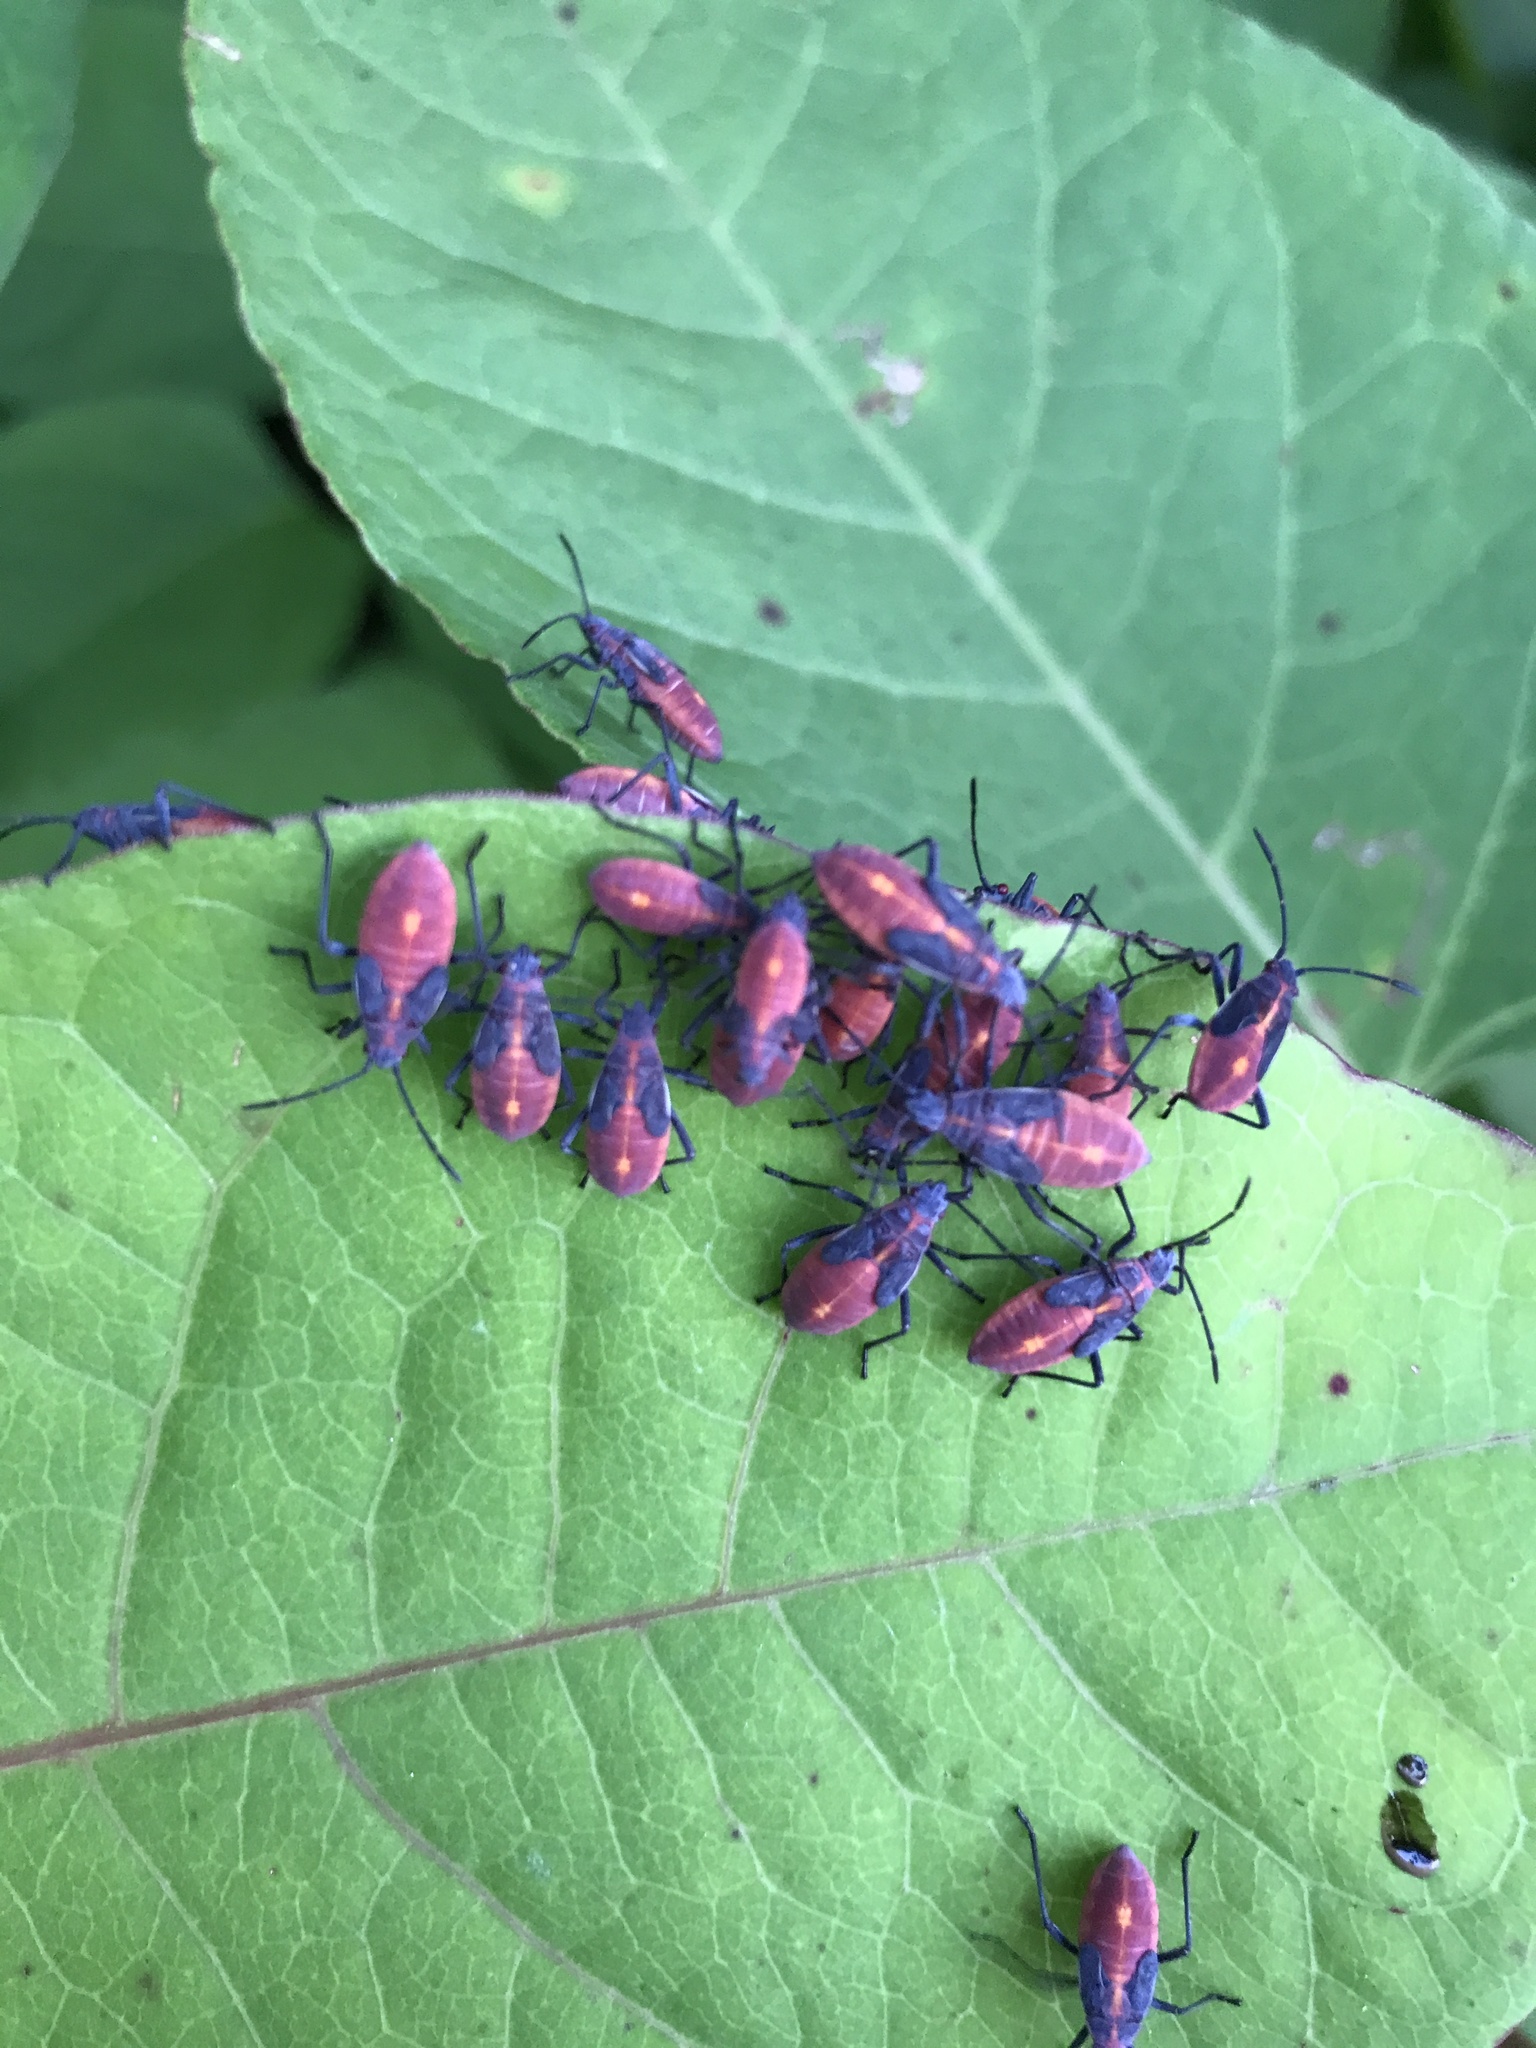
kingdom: Animalia
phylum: Arthropoda
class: Insecta
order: Hemiptera
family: Rhopalidae
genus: Boisea
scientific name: Boisea trivittata
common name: Boxelder bug
